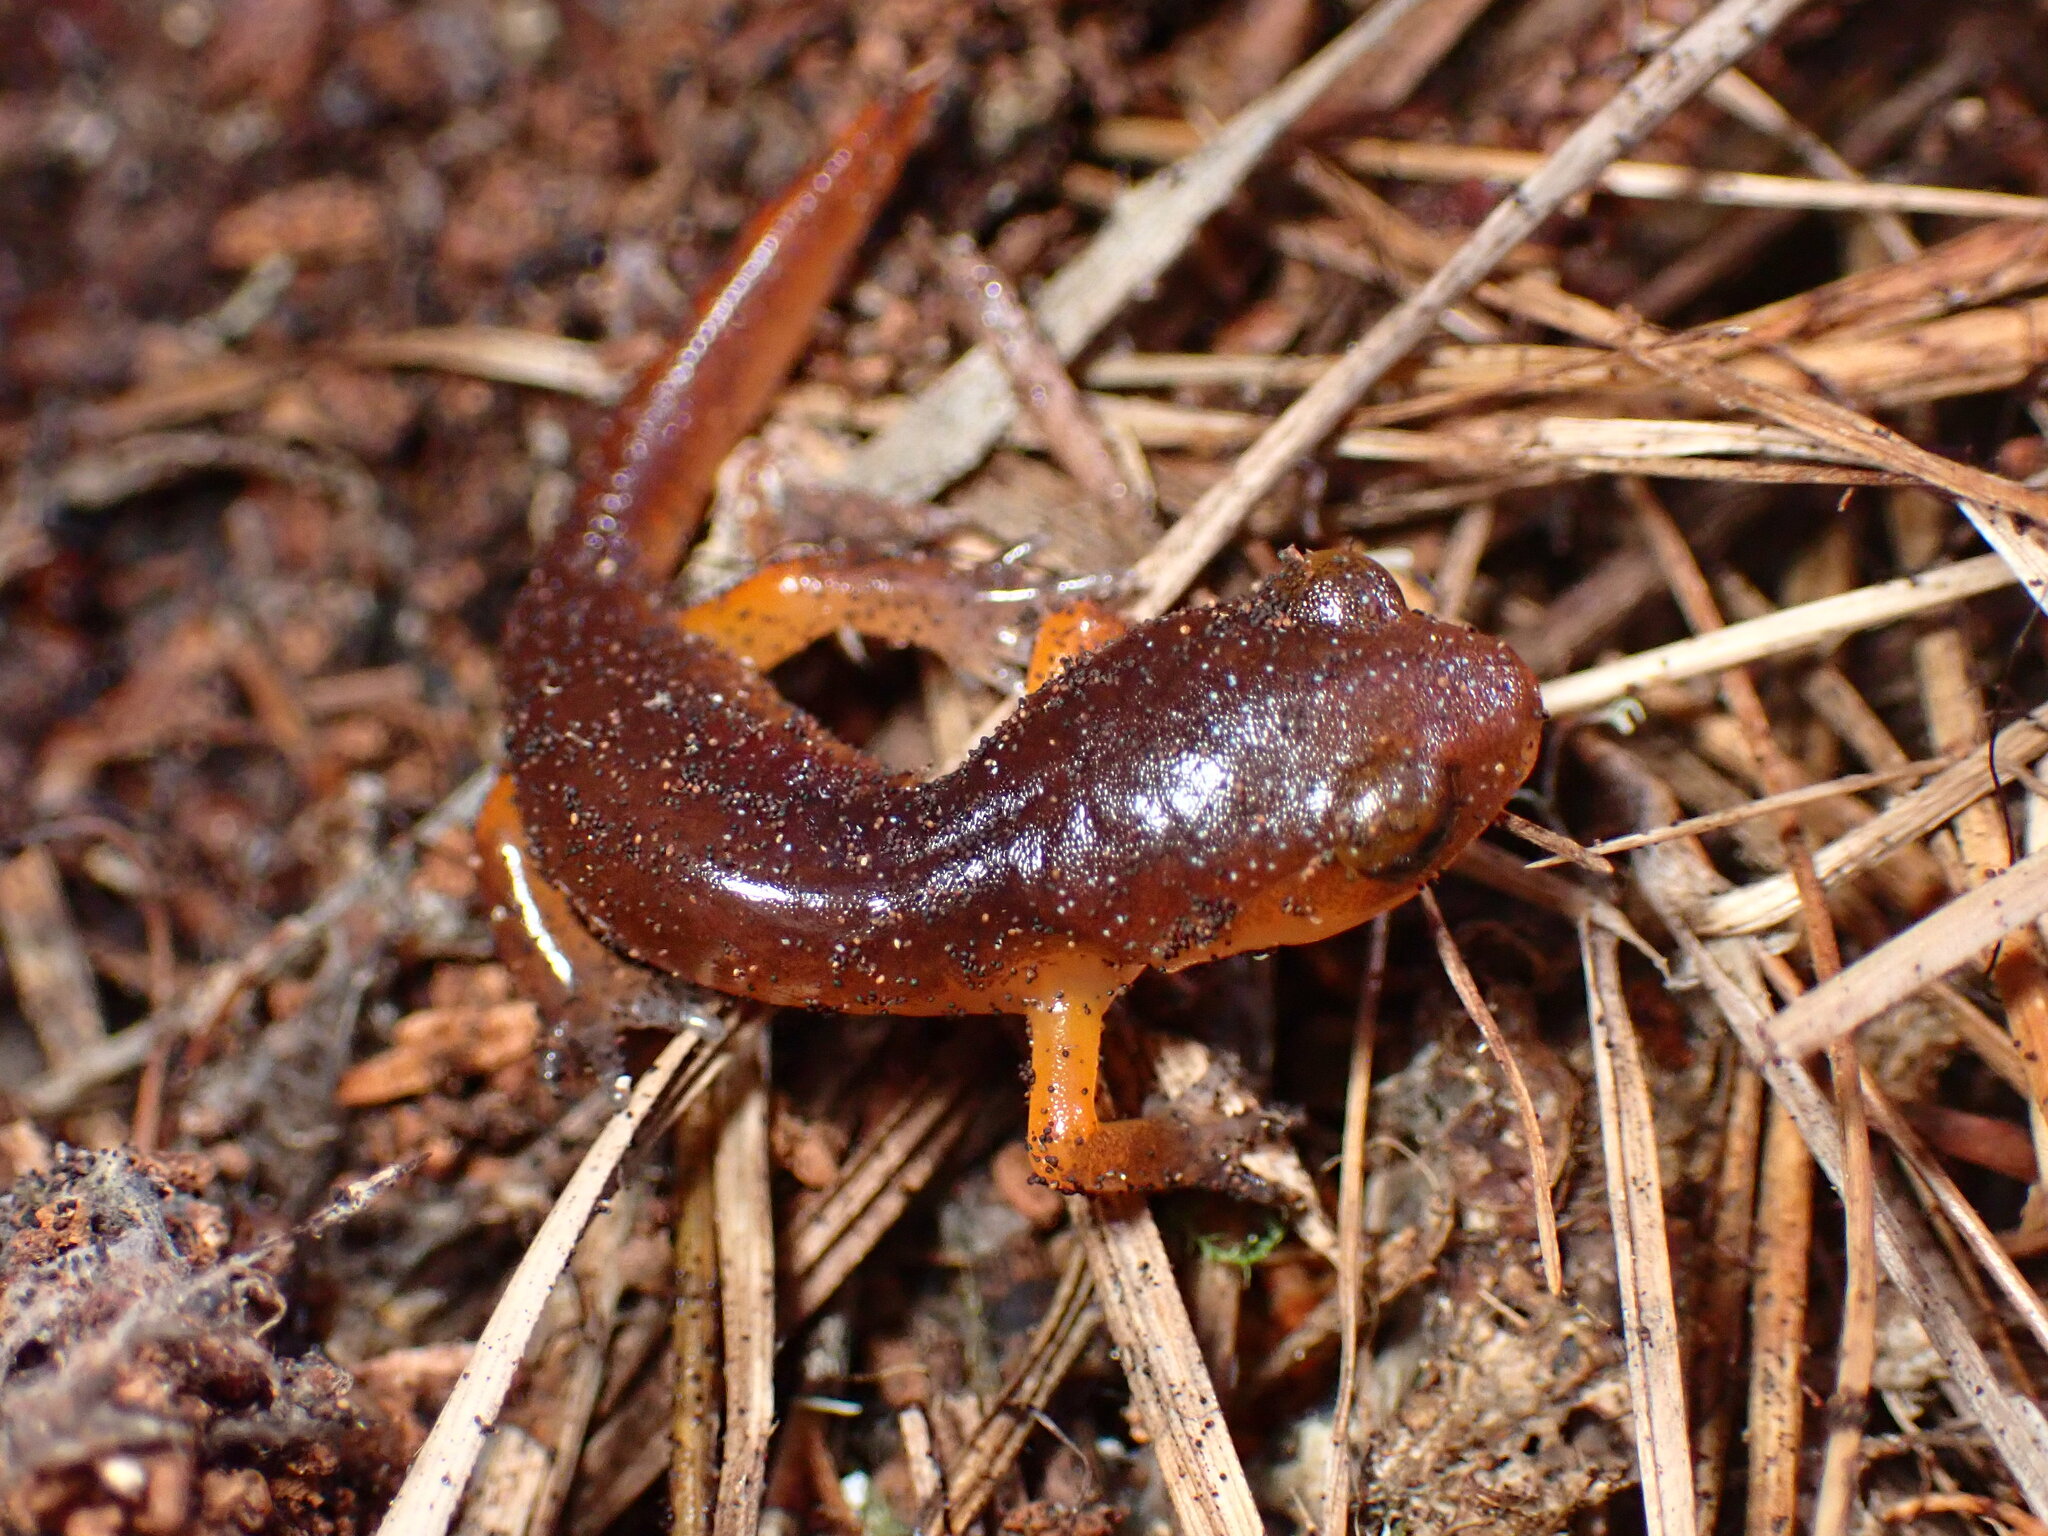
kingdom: Animalia
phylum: Chordata
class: Amphibia
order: Caudata
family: Plethodontidae
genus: Ensatina
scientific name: Ensatina eschscholtzii
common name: Ensatina
